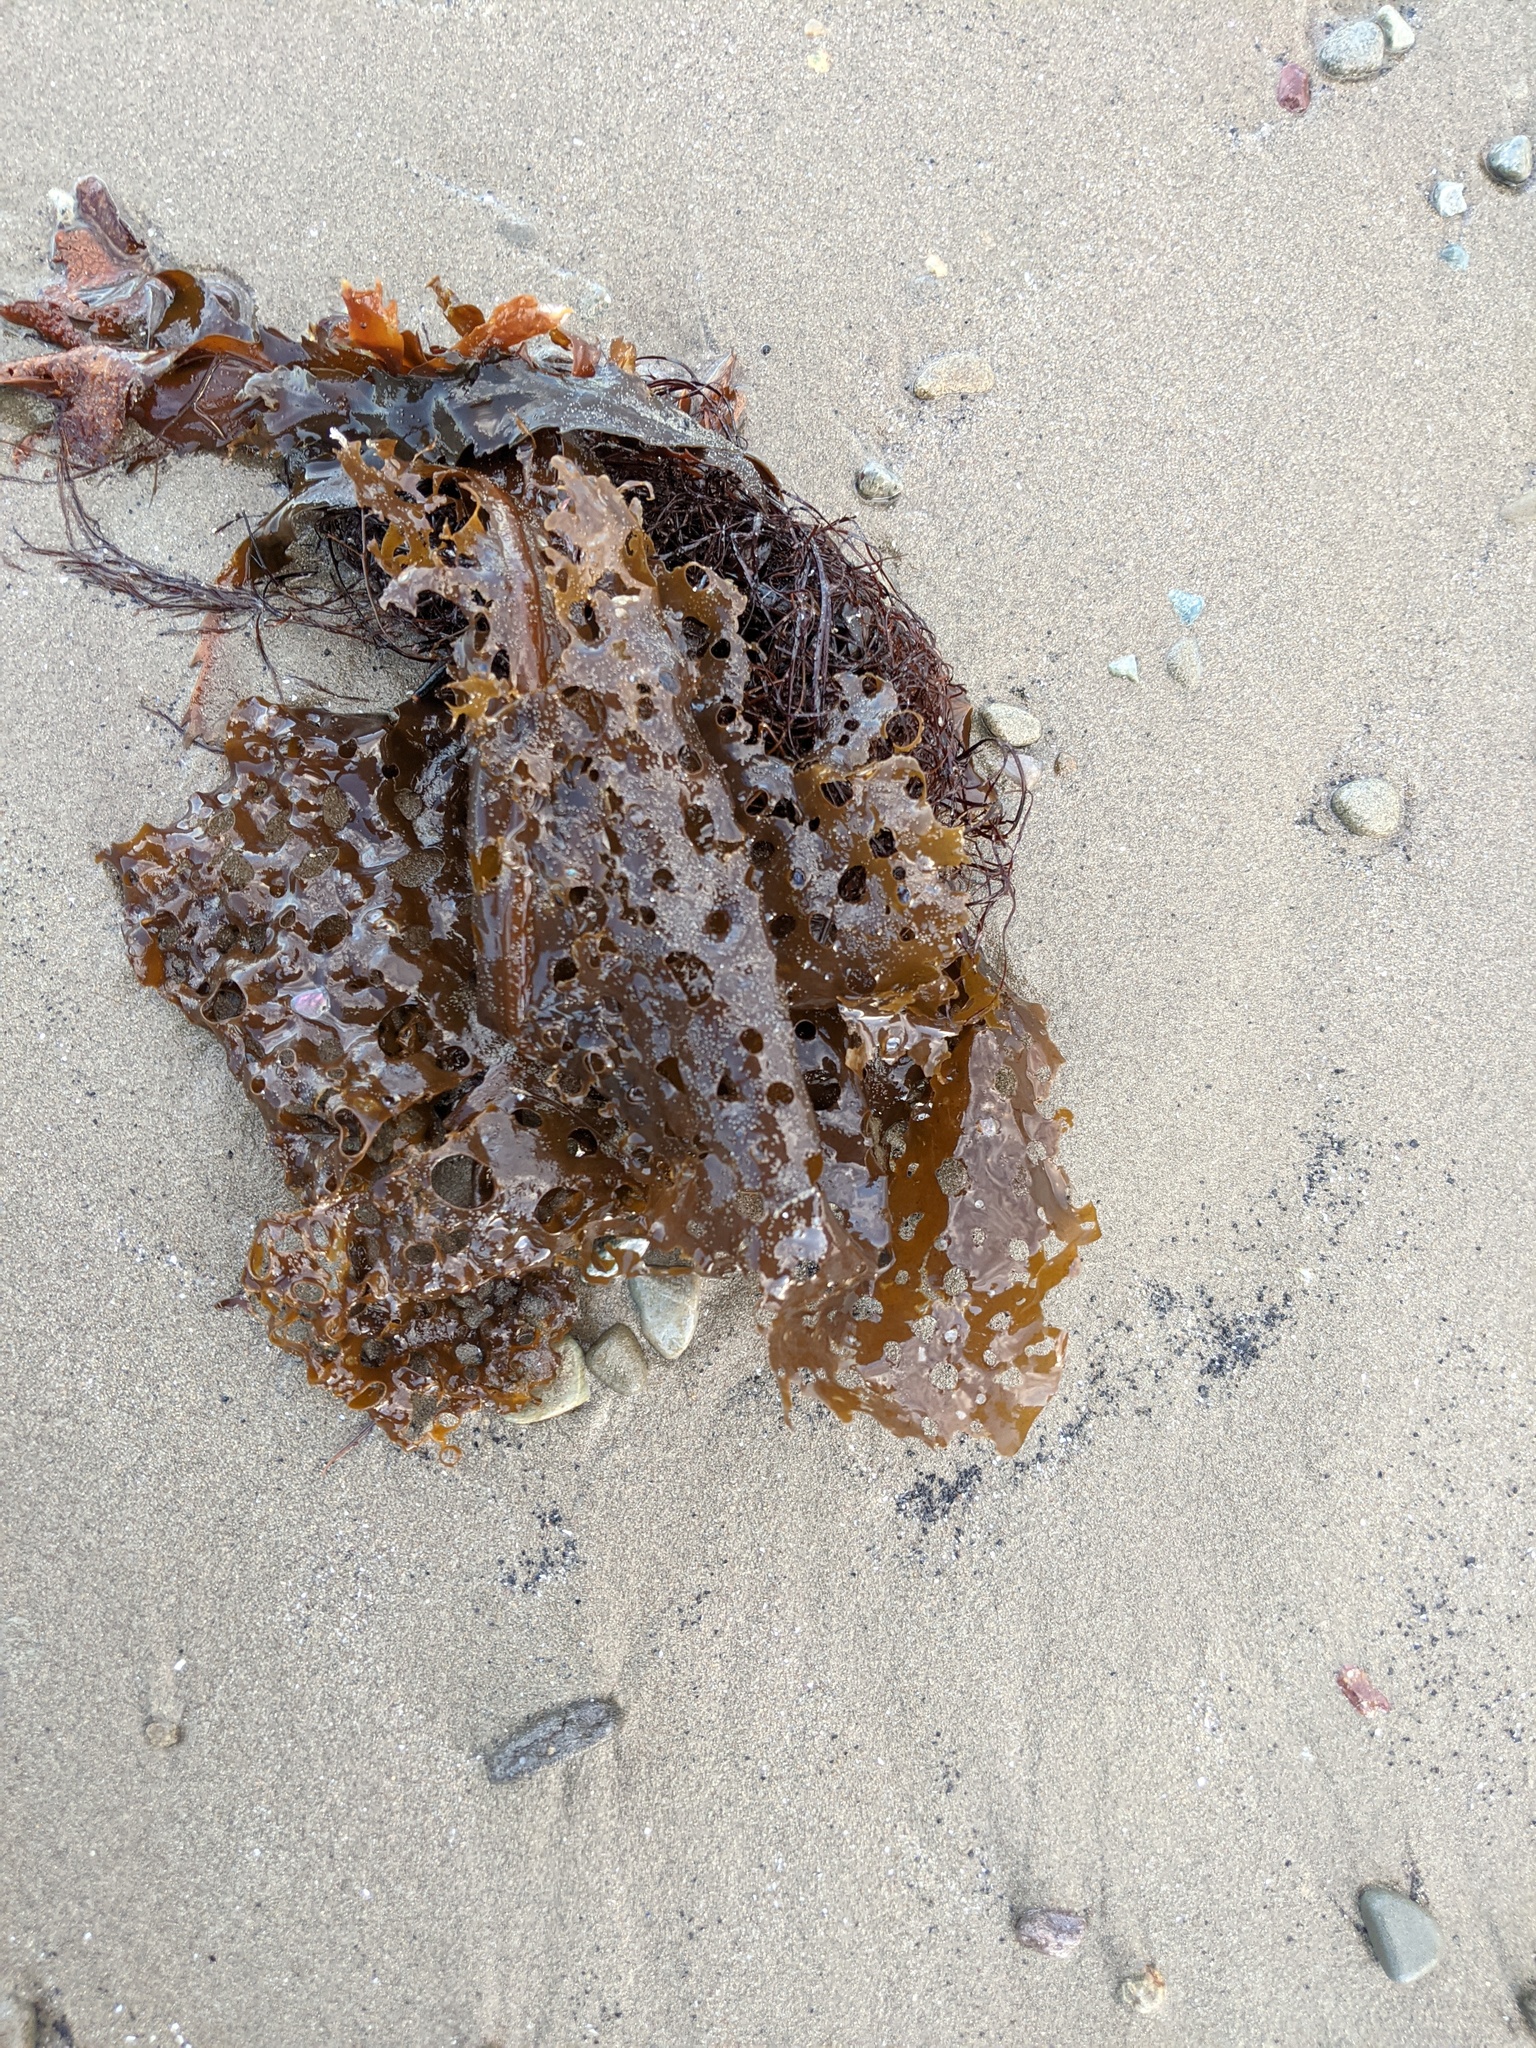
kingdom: Chromista
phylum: Ochrophyta
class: Phaeophyceae
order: Laminariales
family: Costariaceae
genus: Agarum
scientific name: Agarum clathratum
